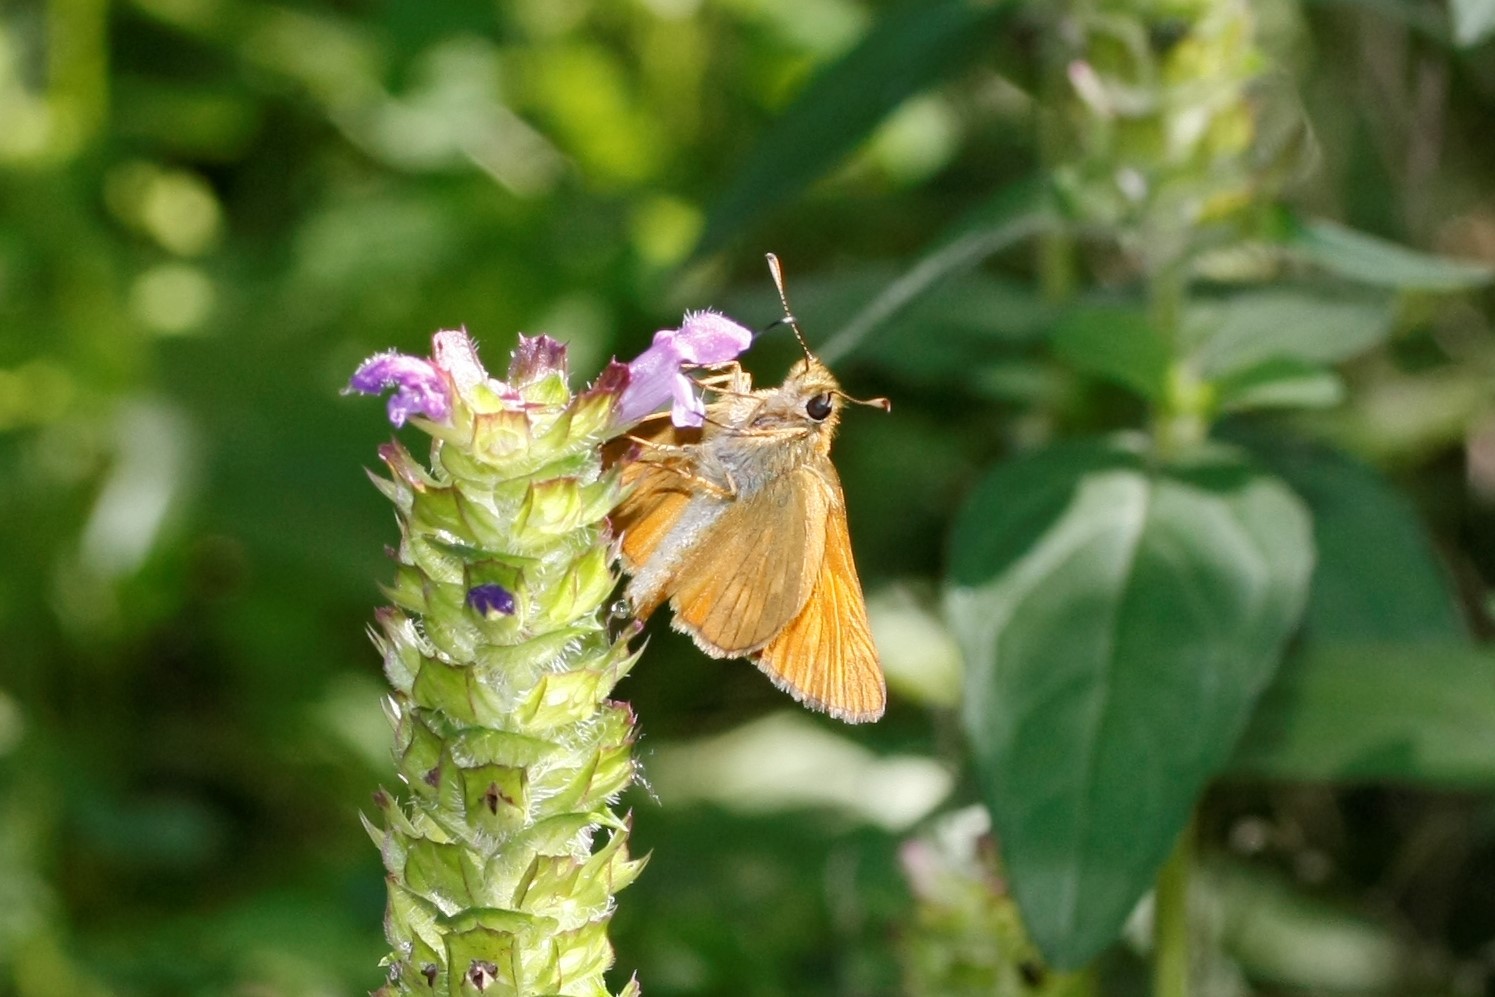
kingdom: Animalia
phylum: Arthropoda
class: Insecta
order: Lepidoptera
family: Hesperiidae
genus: Ochlodes
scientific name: Ochlodes venata
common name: Large skipper
